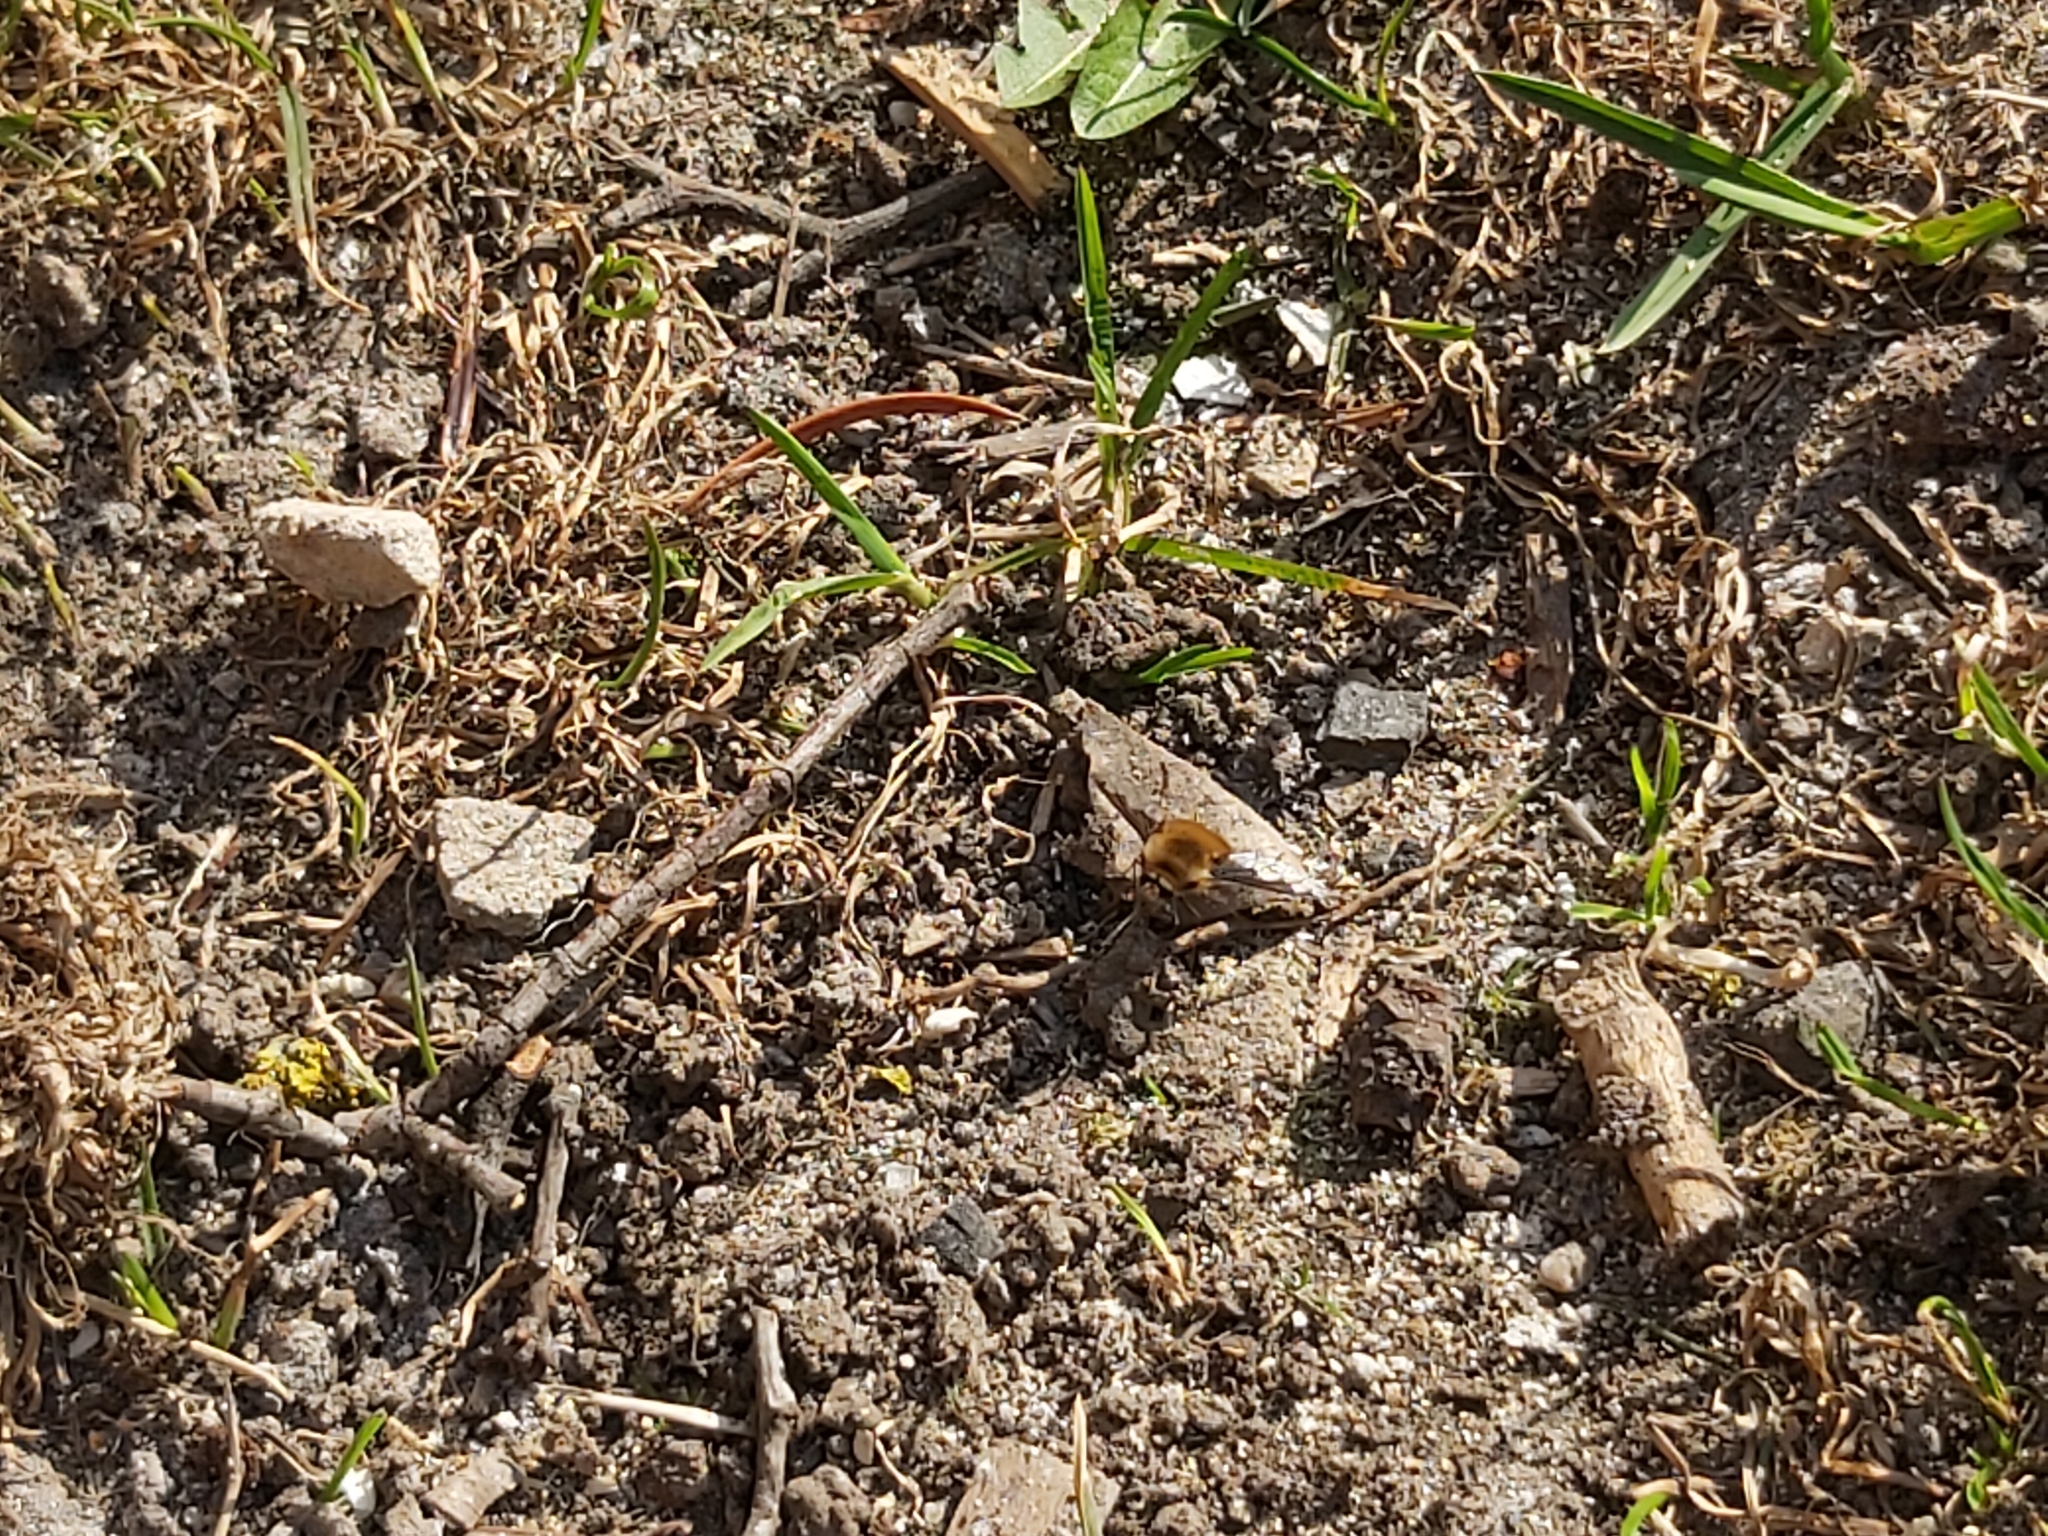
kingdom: Animalia
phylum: Arthropoda
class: Insecta
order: Diptera
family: Bombyliidae
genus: Bombylius
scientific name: Bombylius major
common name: Bee fly
